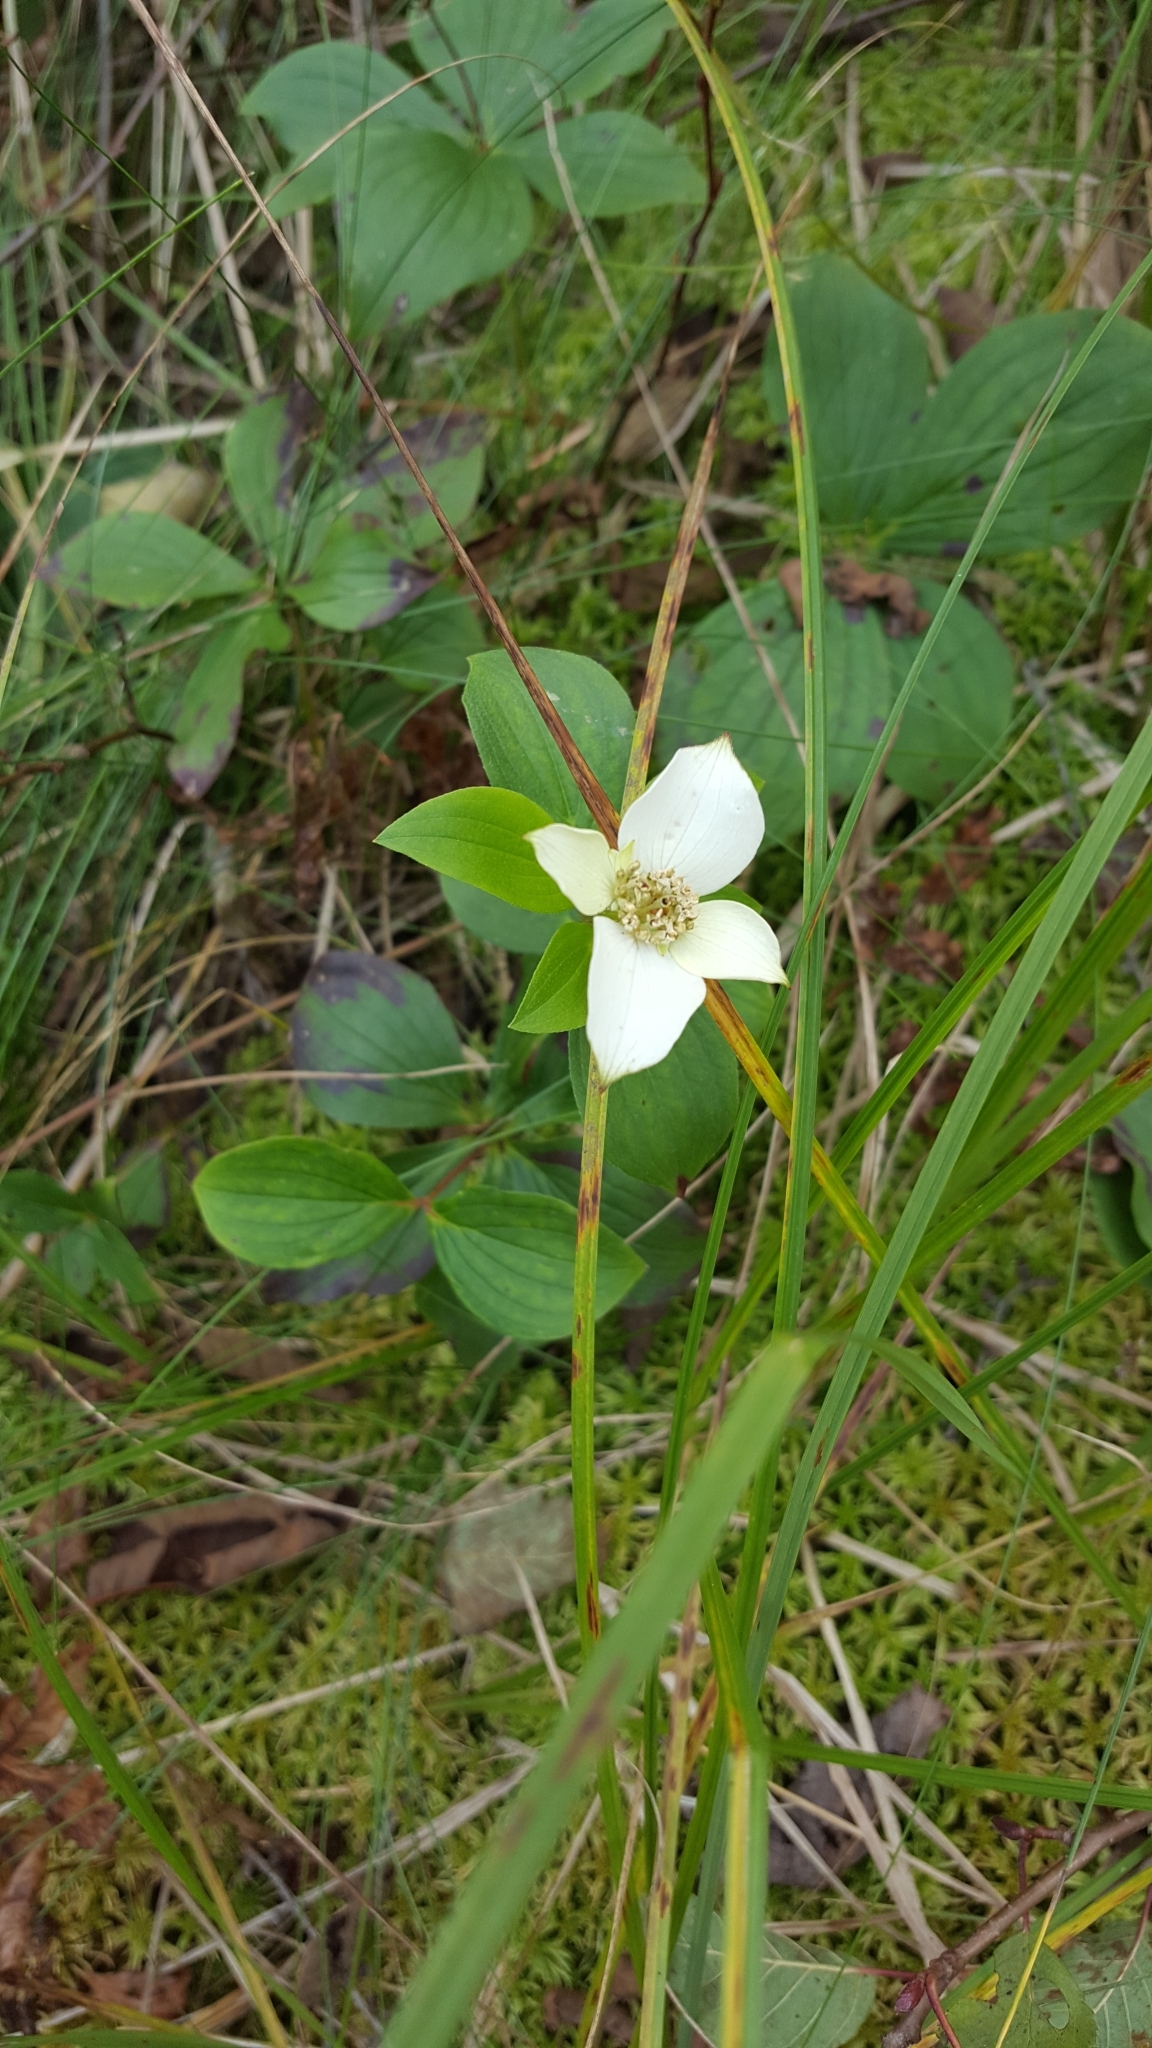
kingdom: Plantae
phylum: Tracheophyta
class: Magnoliopsida
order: Cornales
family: Cornaceae
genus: Cornus
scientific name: Cornus canadensis
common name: Creeping dogwood
